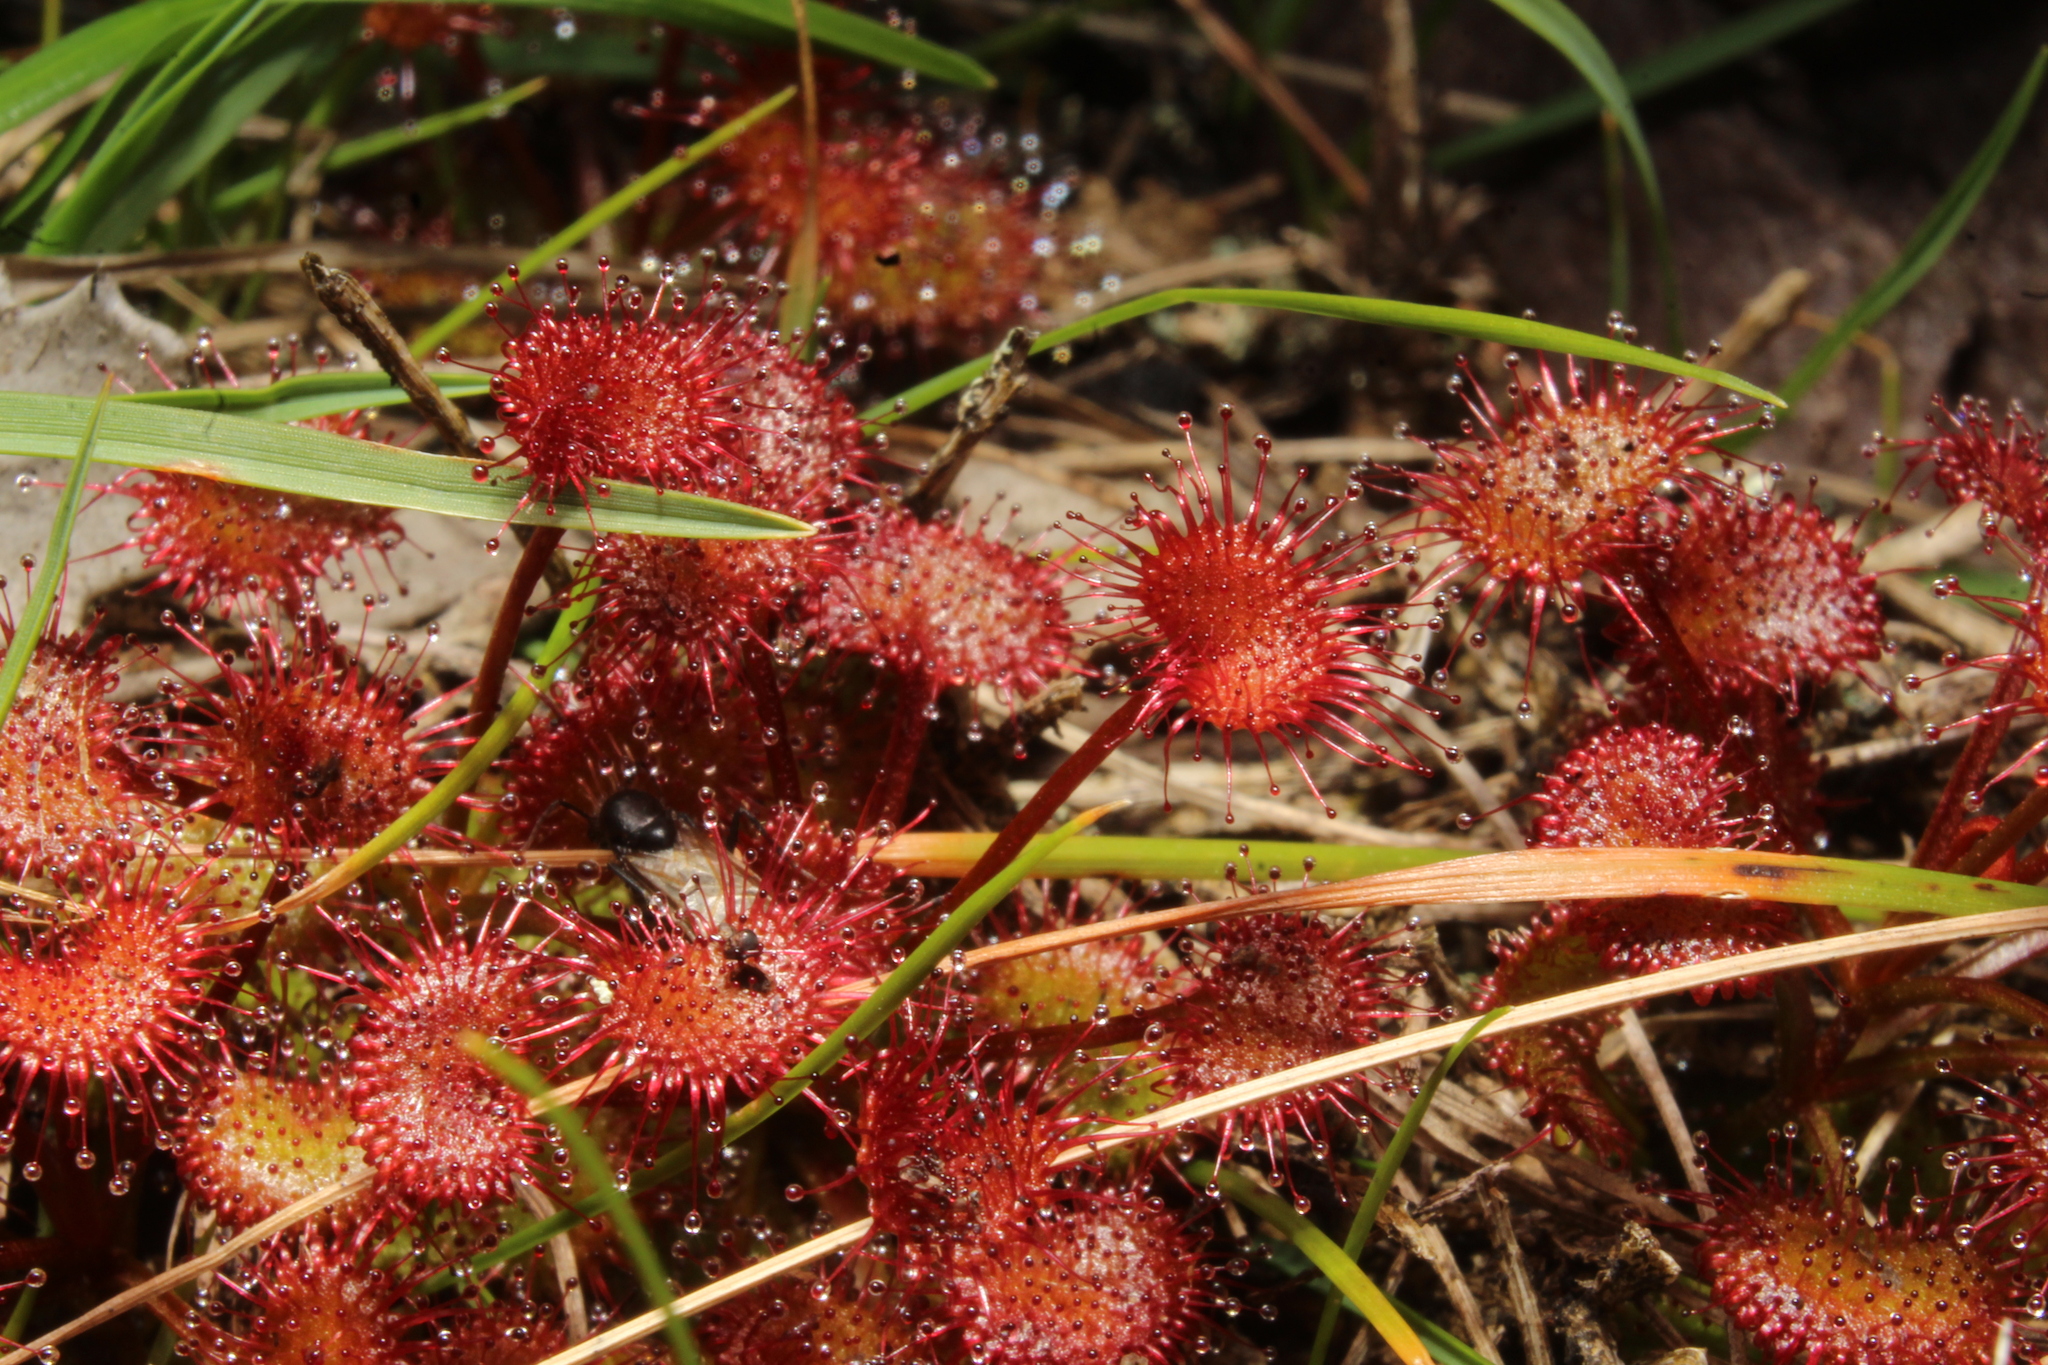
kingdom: Plantae
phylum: Tracheophyta
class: Magnoliopsida
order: Caryophyllales
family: Droseraceae
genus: Drosera
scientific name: Drosera monticola
